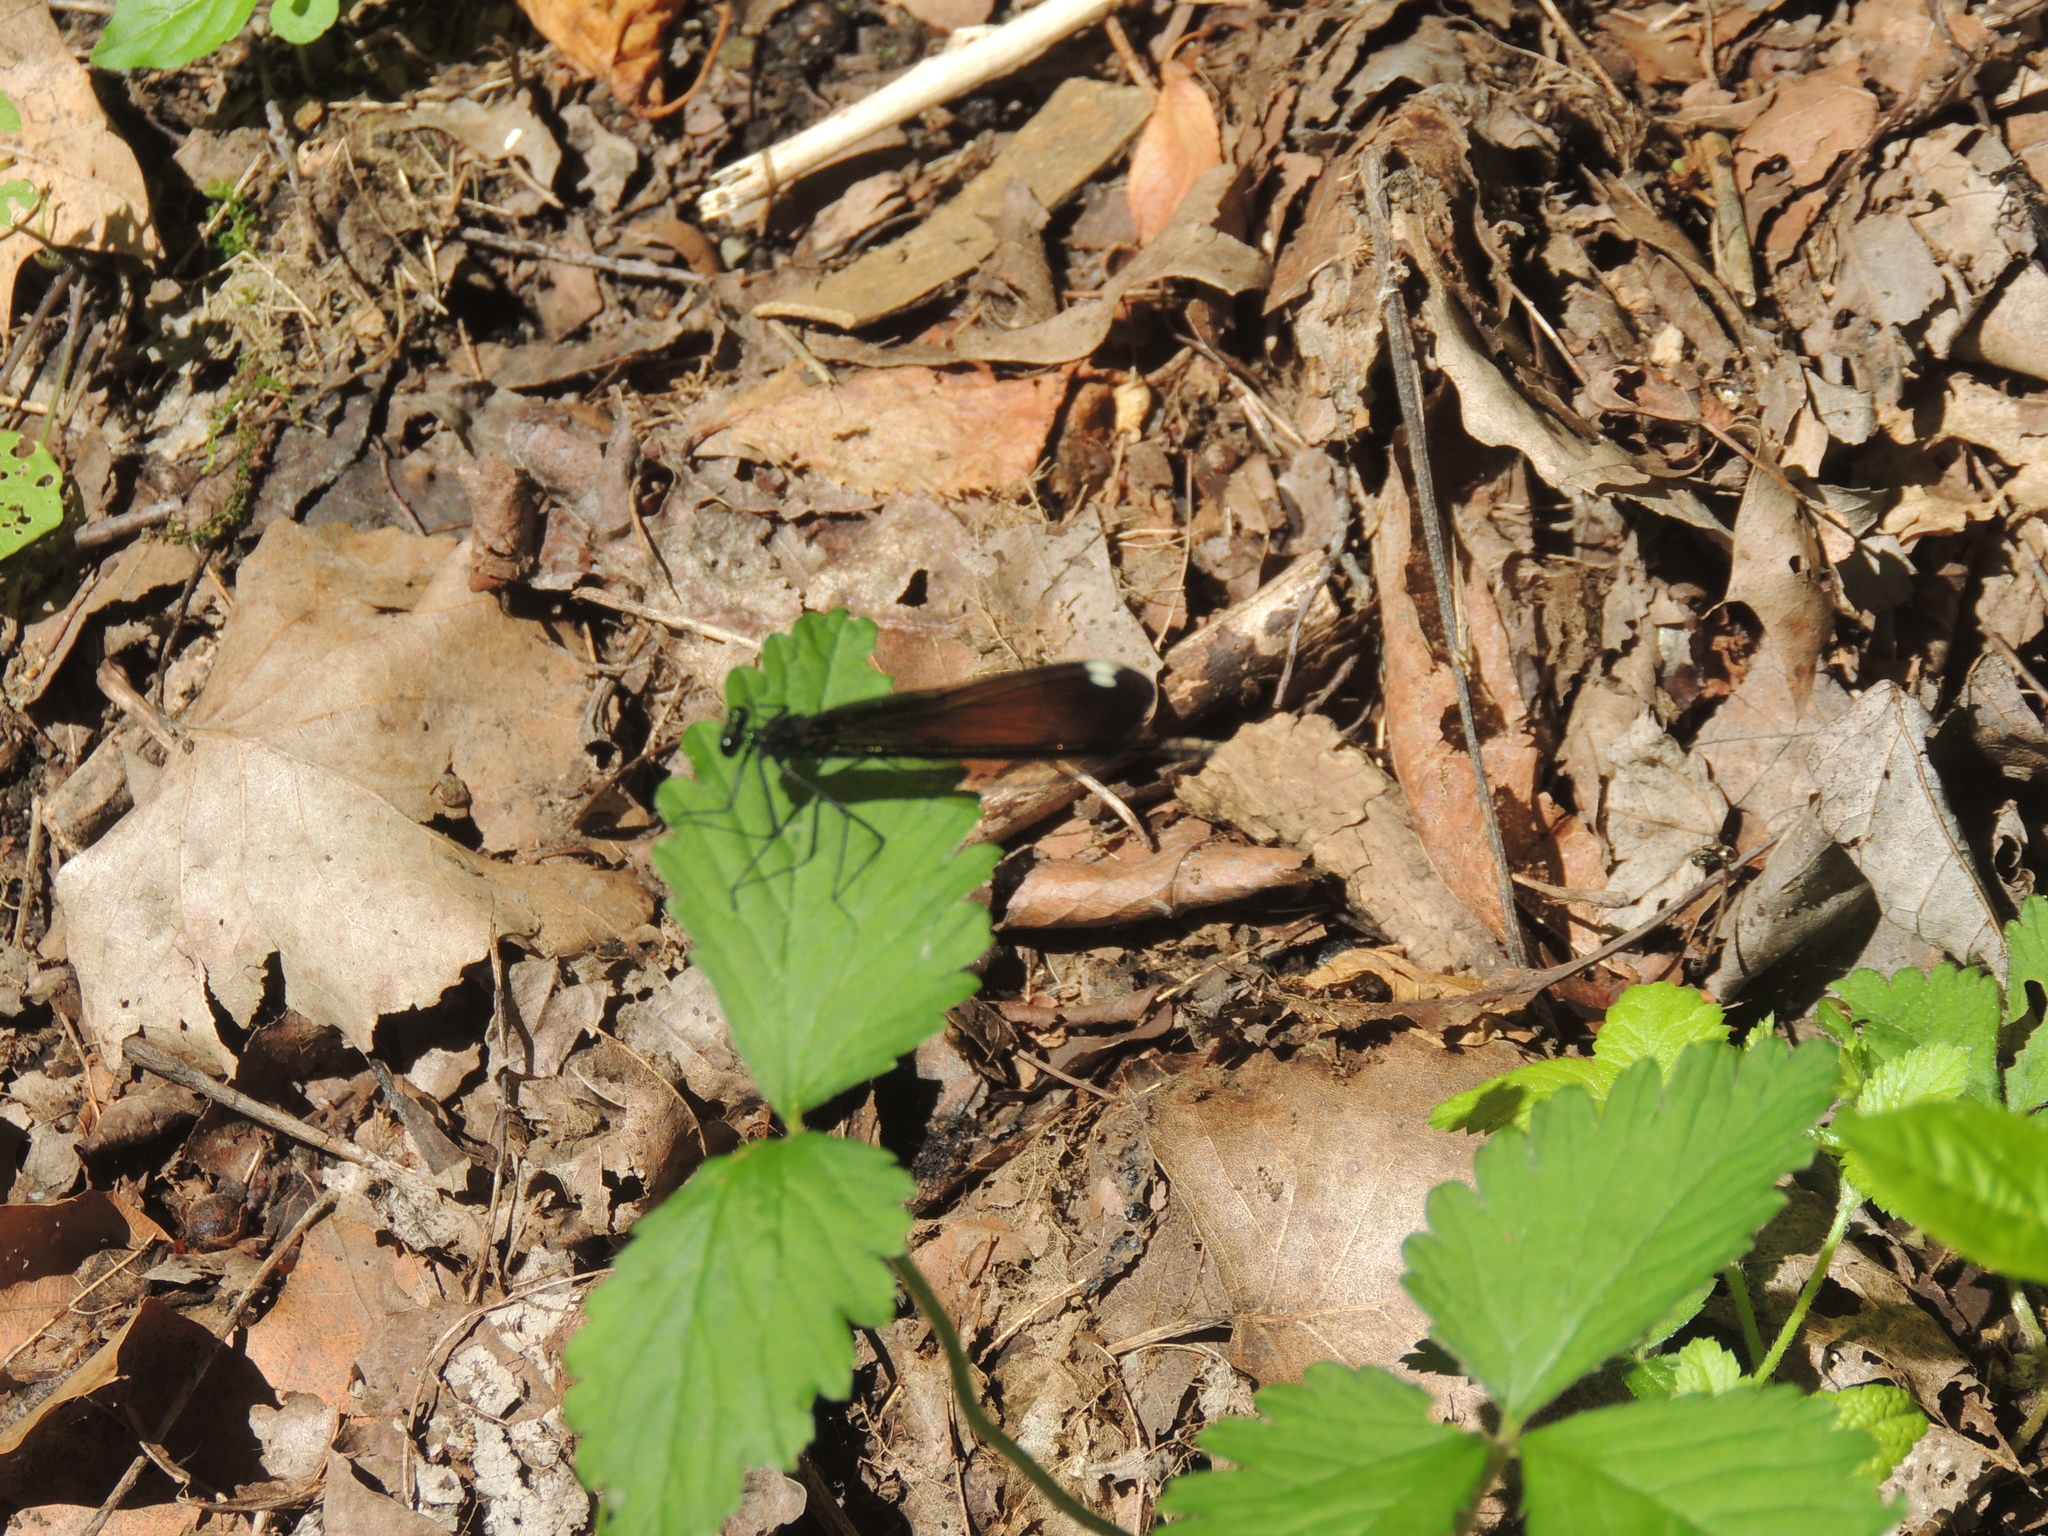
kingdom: Animalia
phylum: Arthropoda
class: Insecta
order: Odonata
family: Calopterygidae
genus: Calopteryx
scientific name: Calopteryx maculata
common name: Ebony jewelwing
